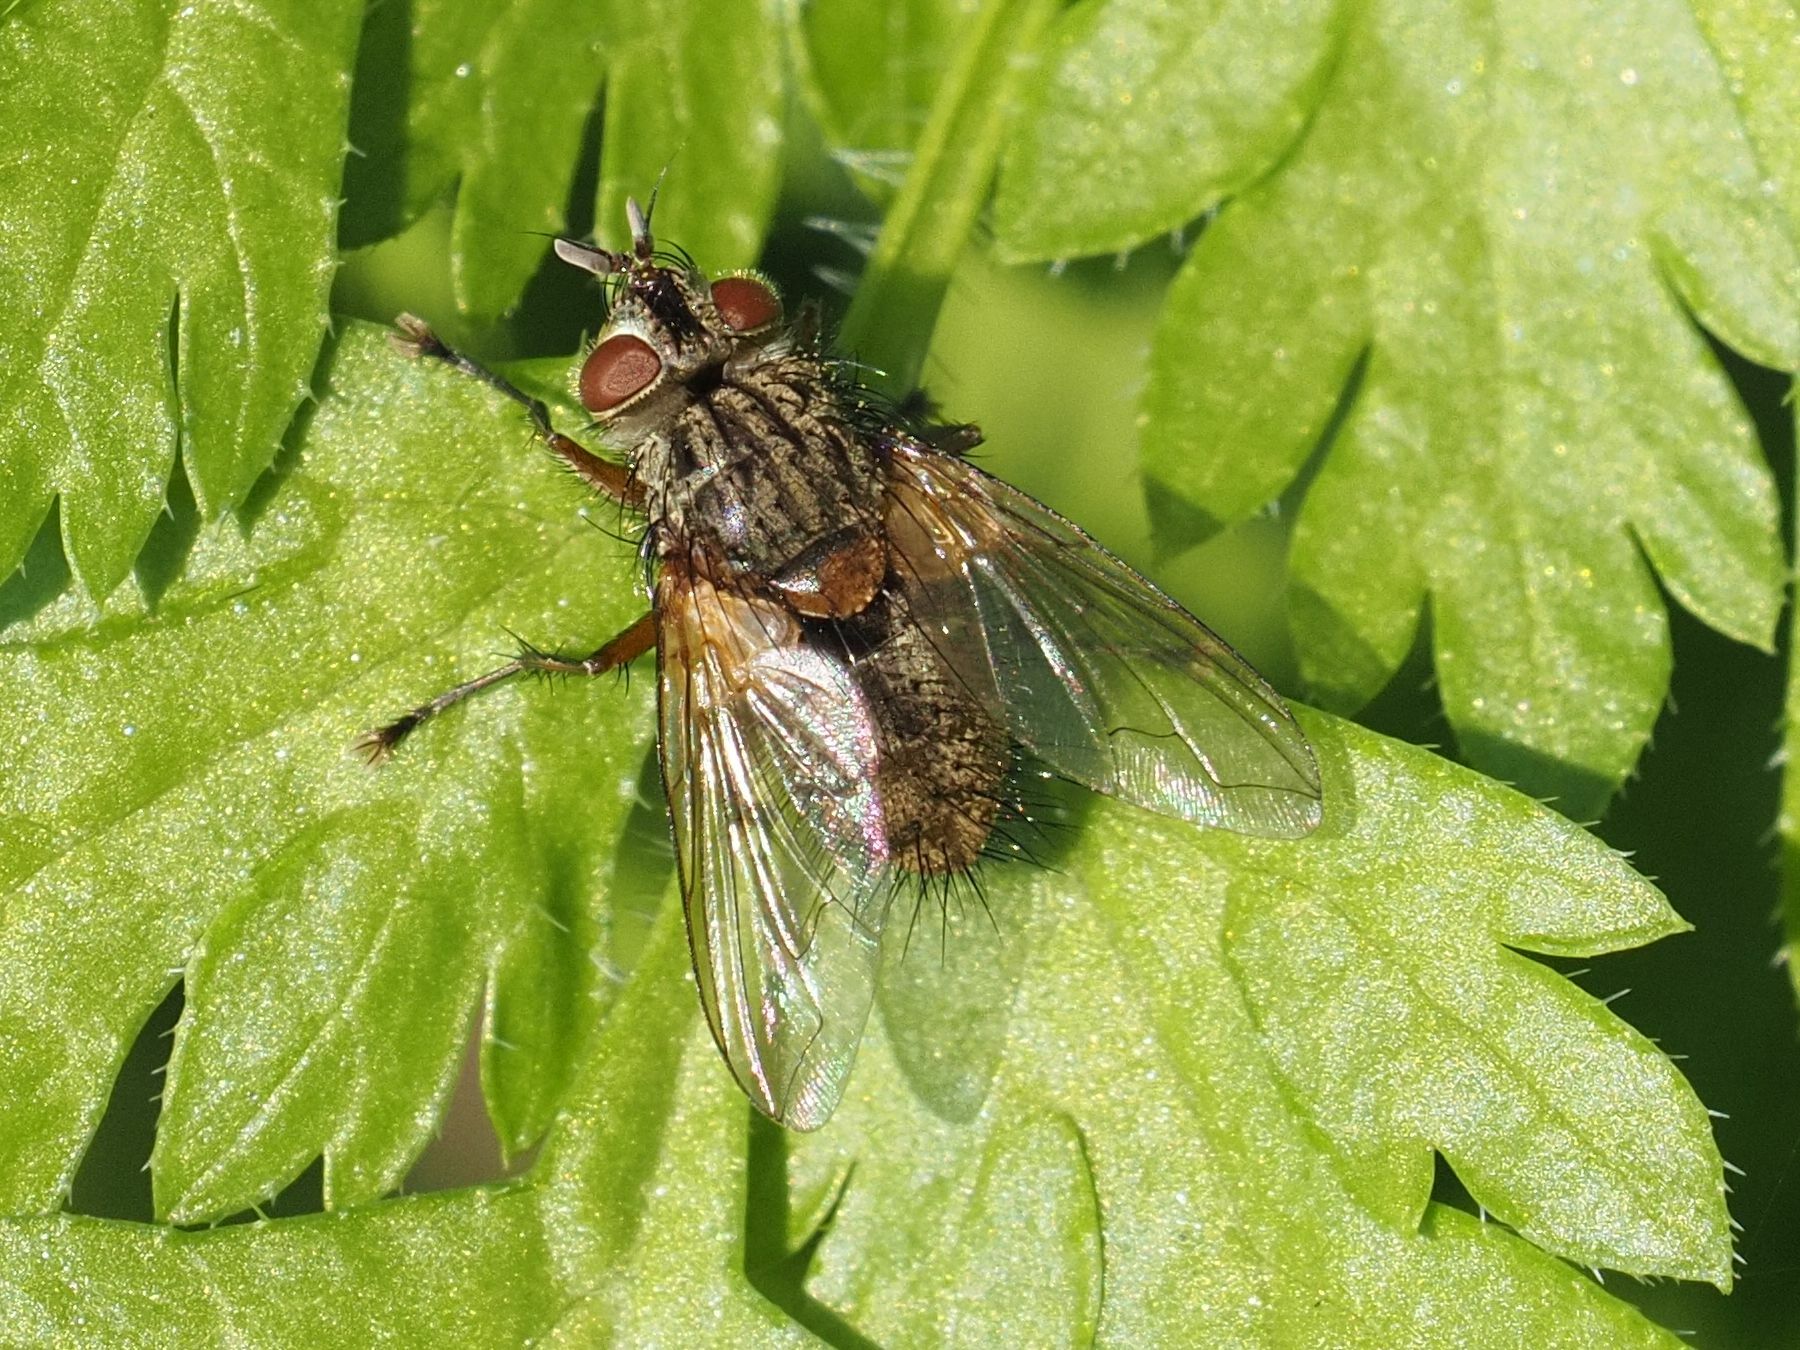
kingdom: Animalia
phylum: Arthropoda
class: Insecta
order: Diptera
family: Tachinidae
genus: Phryno
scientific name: Phryno vetula
